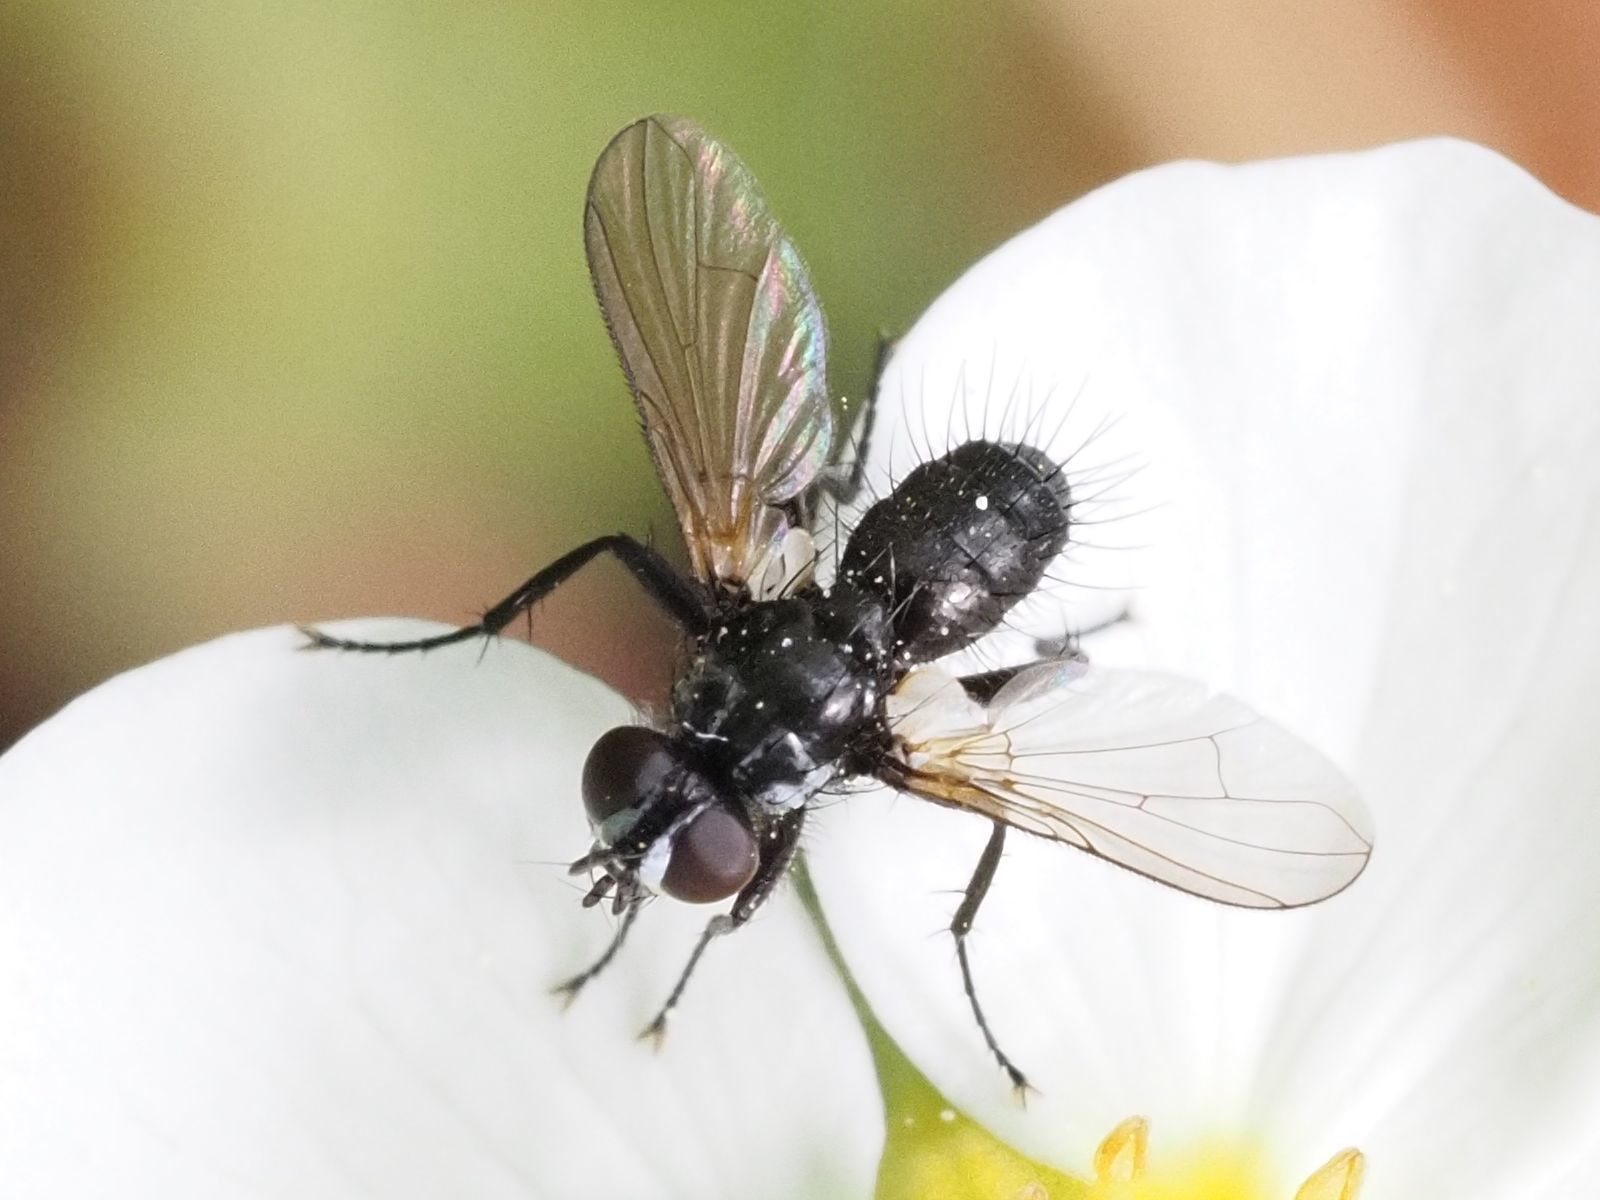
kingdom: Animalia
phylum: Arthropoda
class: Insecta
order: Diptera
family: Tachinidae
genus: Phania
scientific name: Phania funesta
